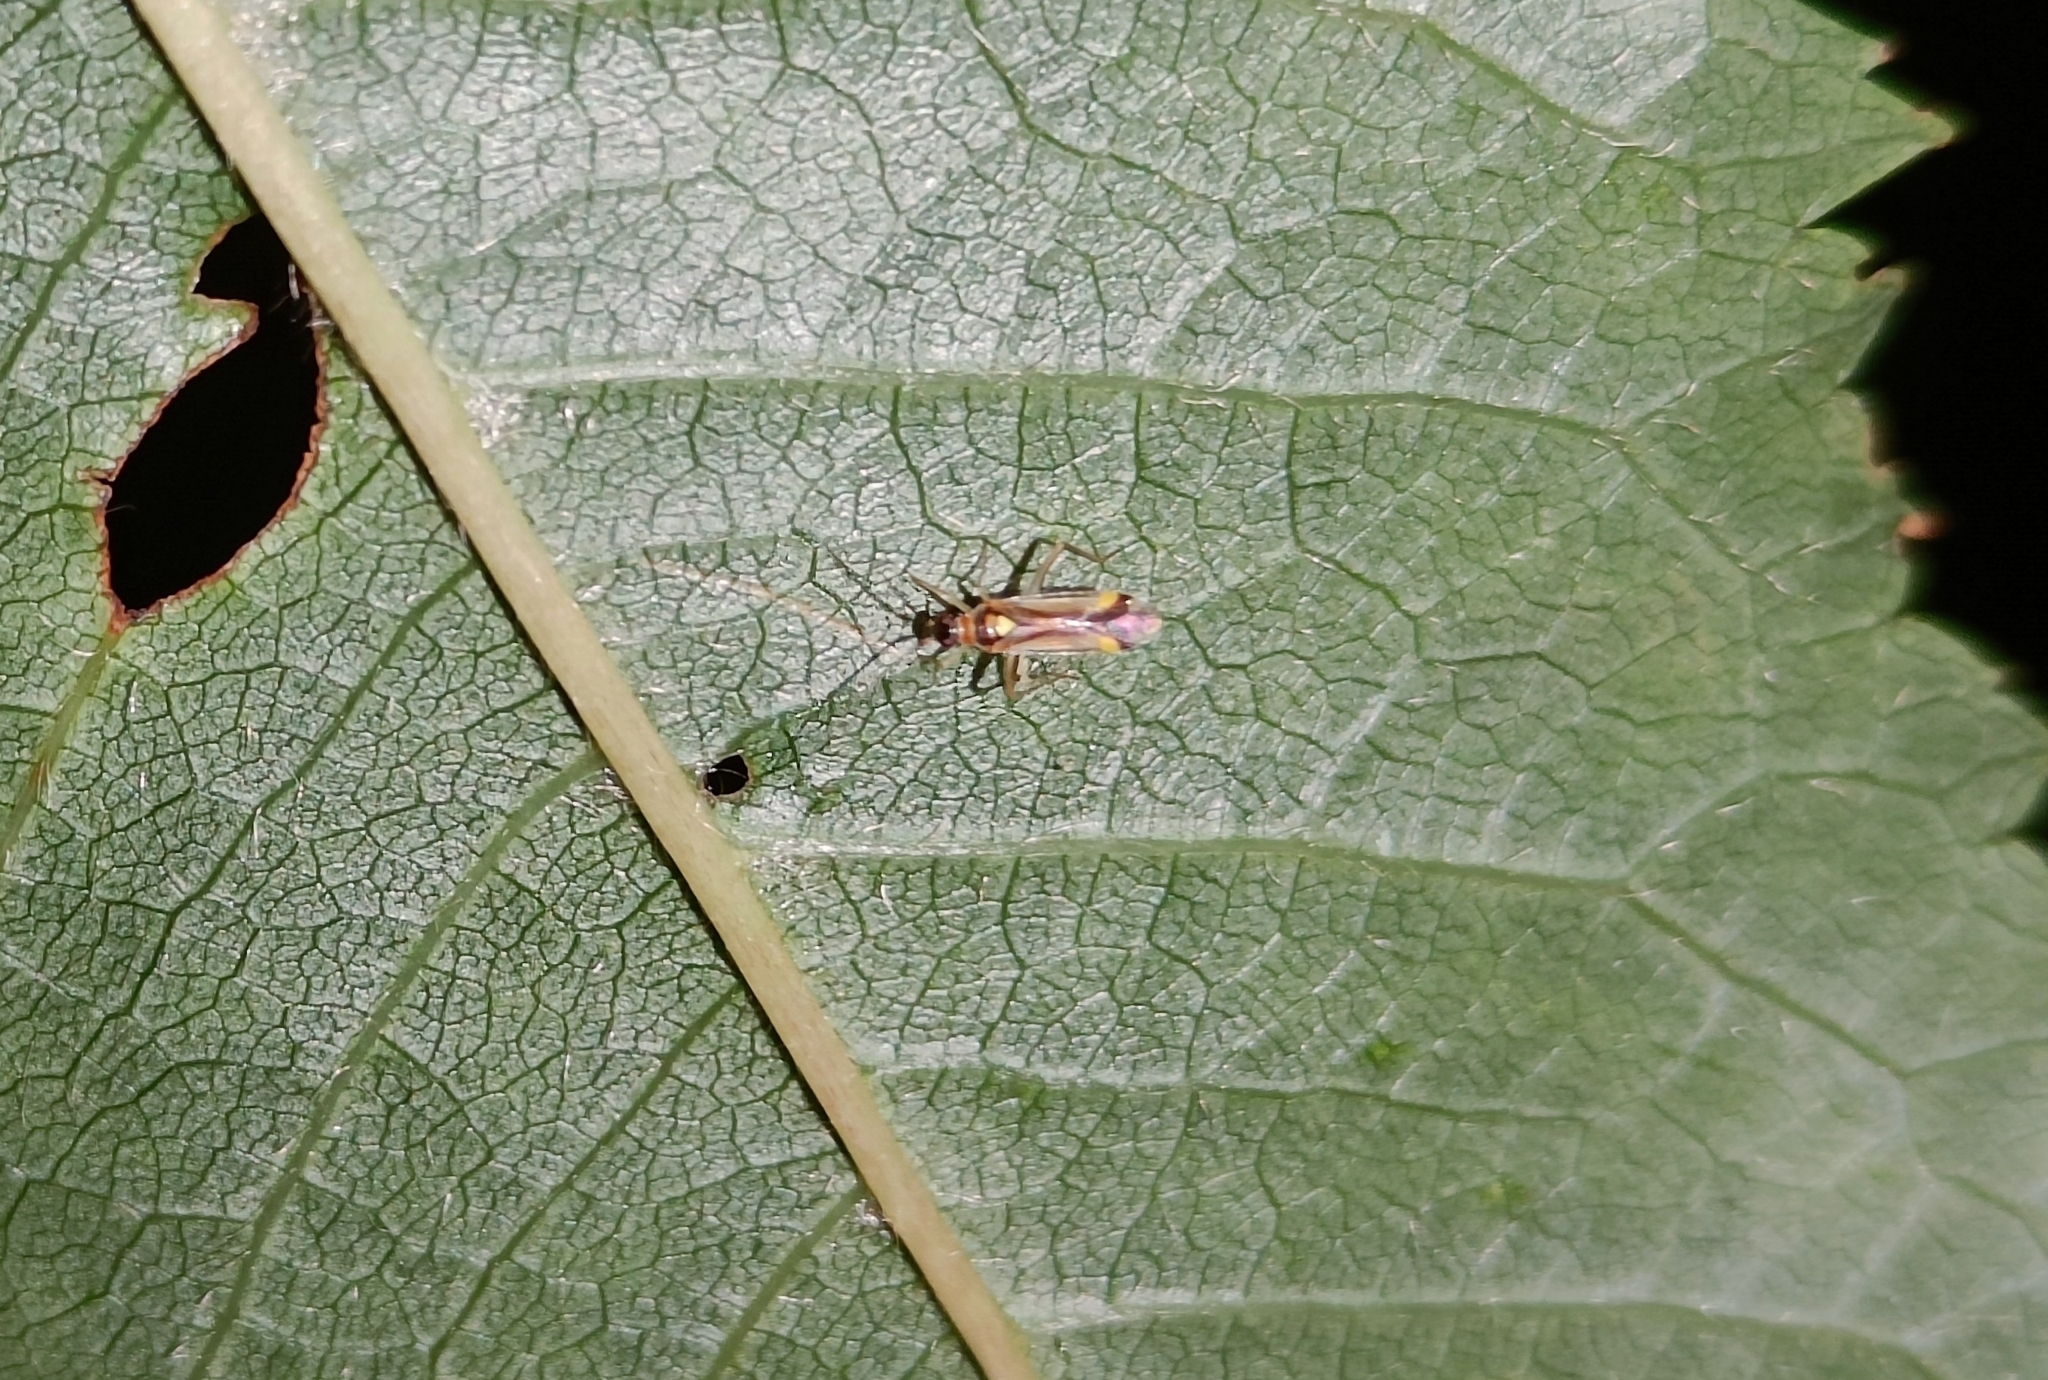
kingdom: Animalia
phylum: Arthropoda
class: Insecta
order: Hemiptera
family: Miridae
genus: Campyloneura
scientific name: Campyloneura virgula
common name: Predatory bug
